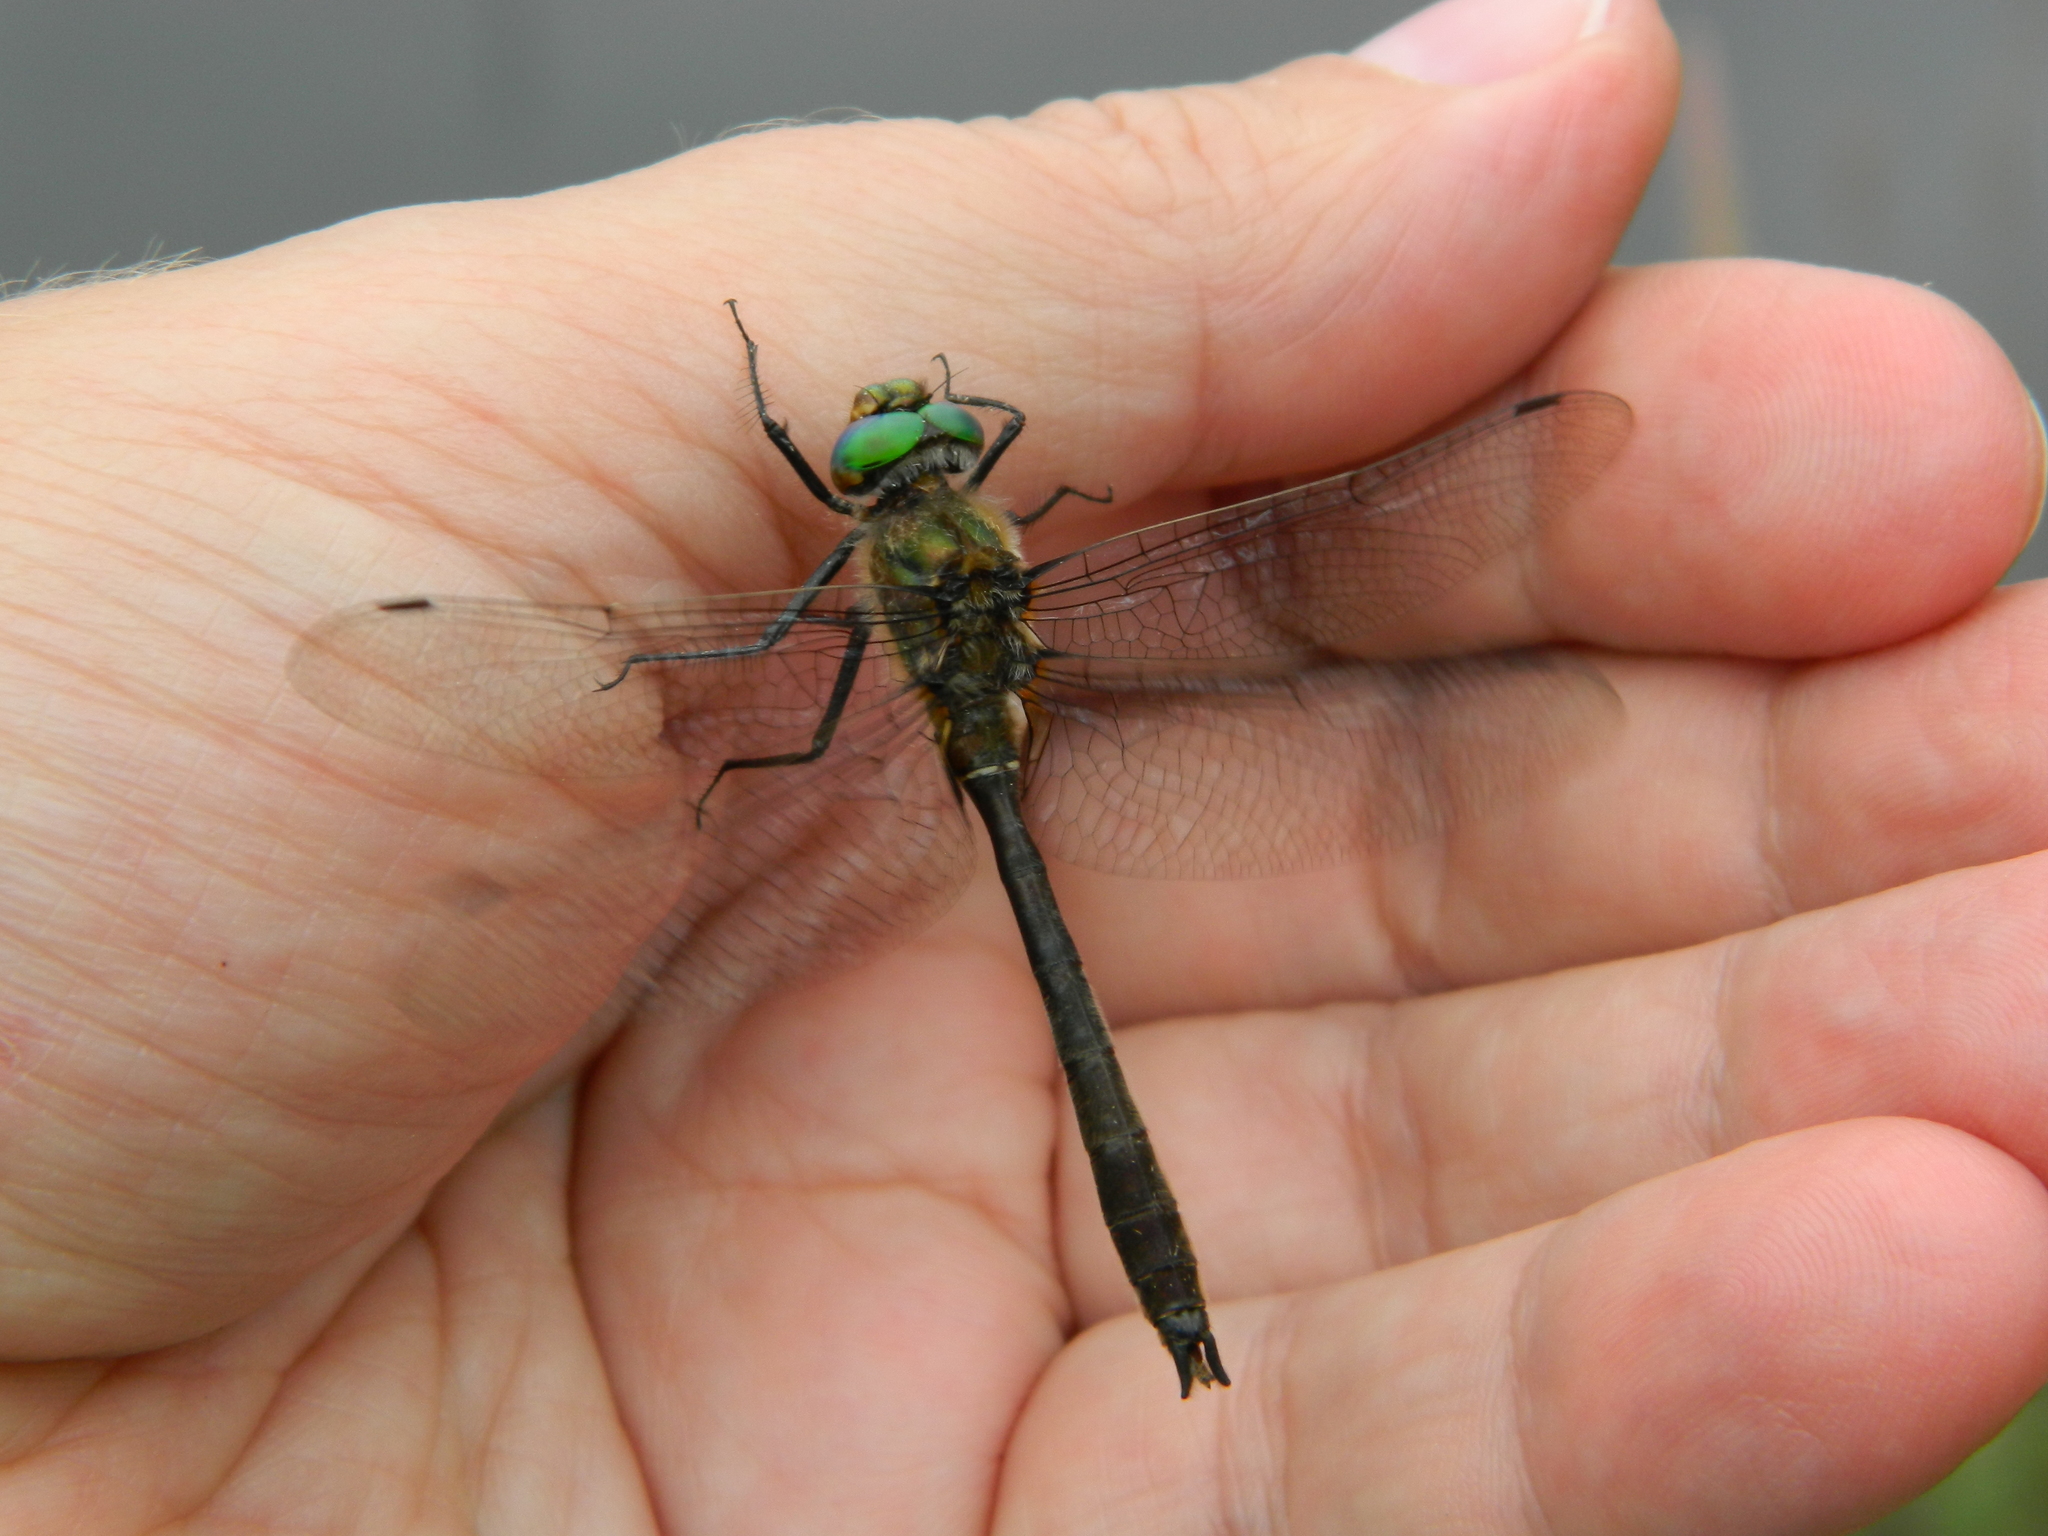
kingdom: Animalia
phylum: Arthropoda
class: Insecta
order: Odonata
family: Corduliidae
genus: Cordulia
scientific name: Cordulia shurtleffii
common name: American emerald
